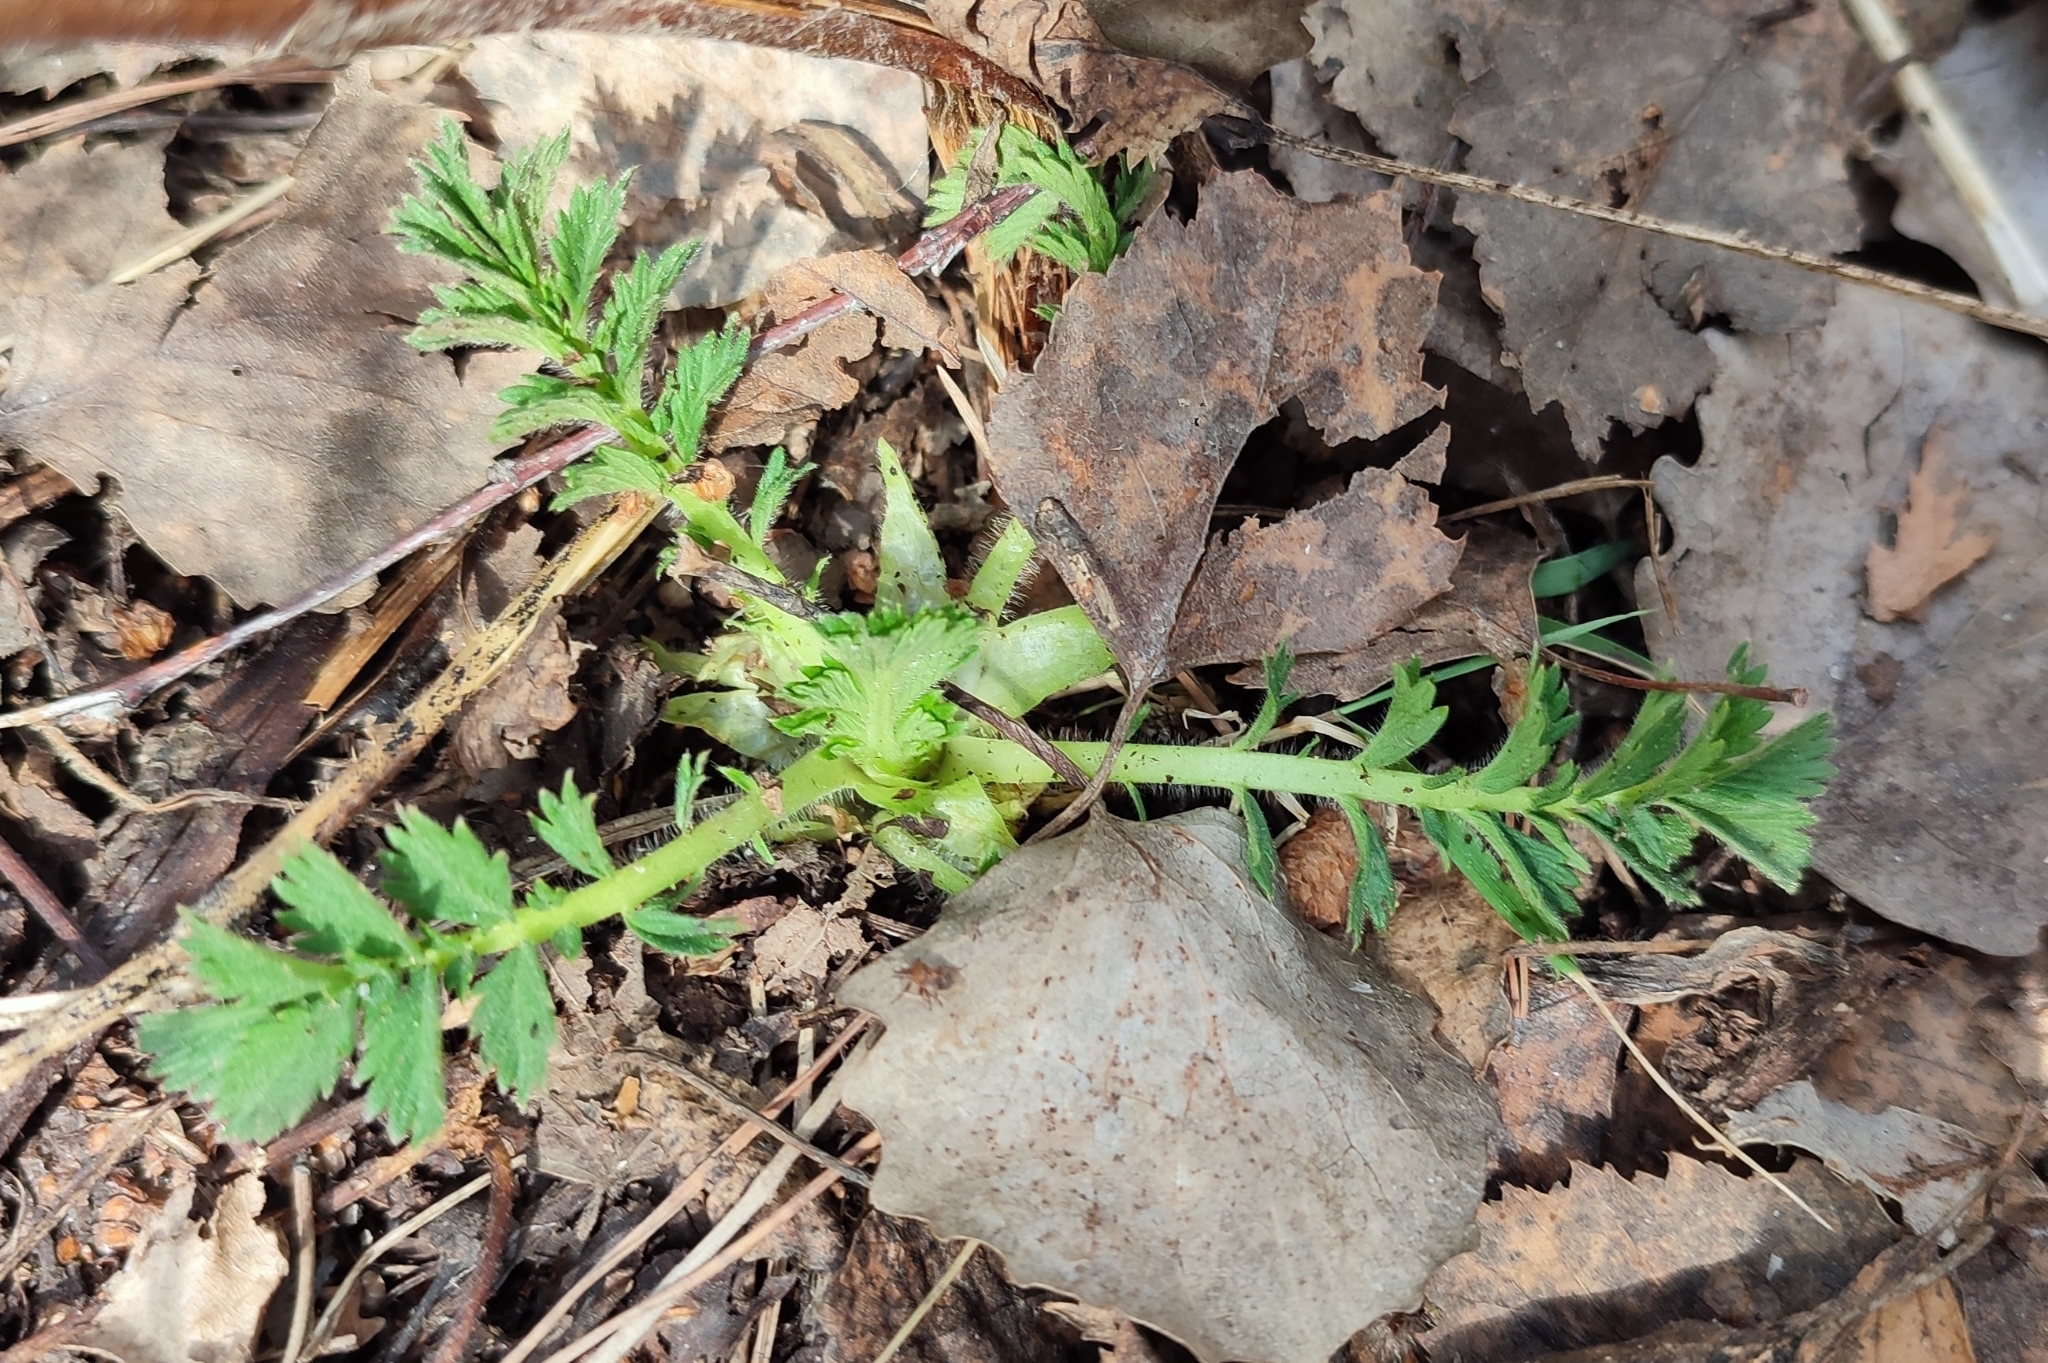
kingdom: Plantae
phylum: Tracheophyta
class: Magnoliopsida
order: Rosales
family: Rosaceae
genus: Agrimonia
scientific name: Agrimonia pilosa
